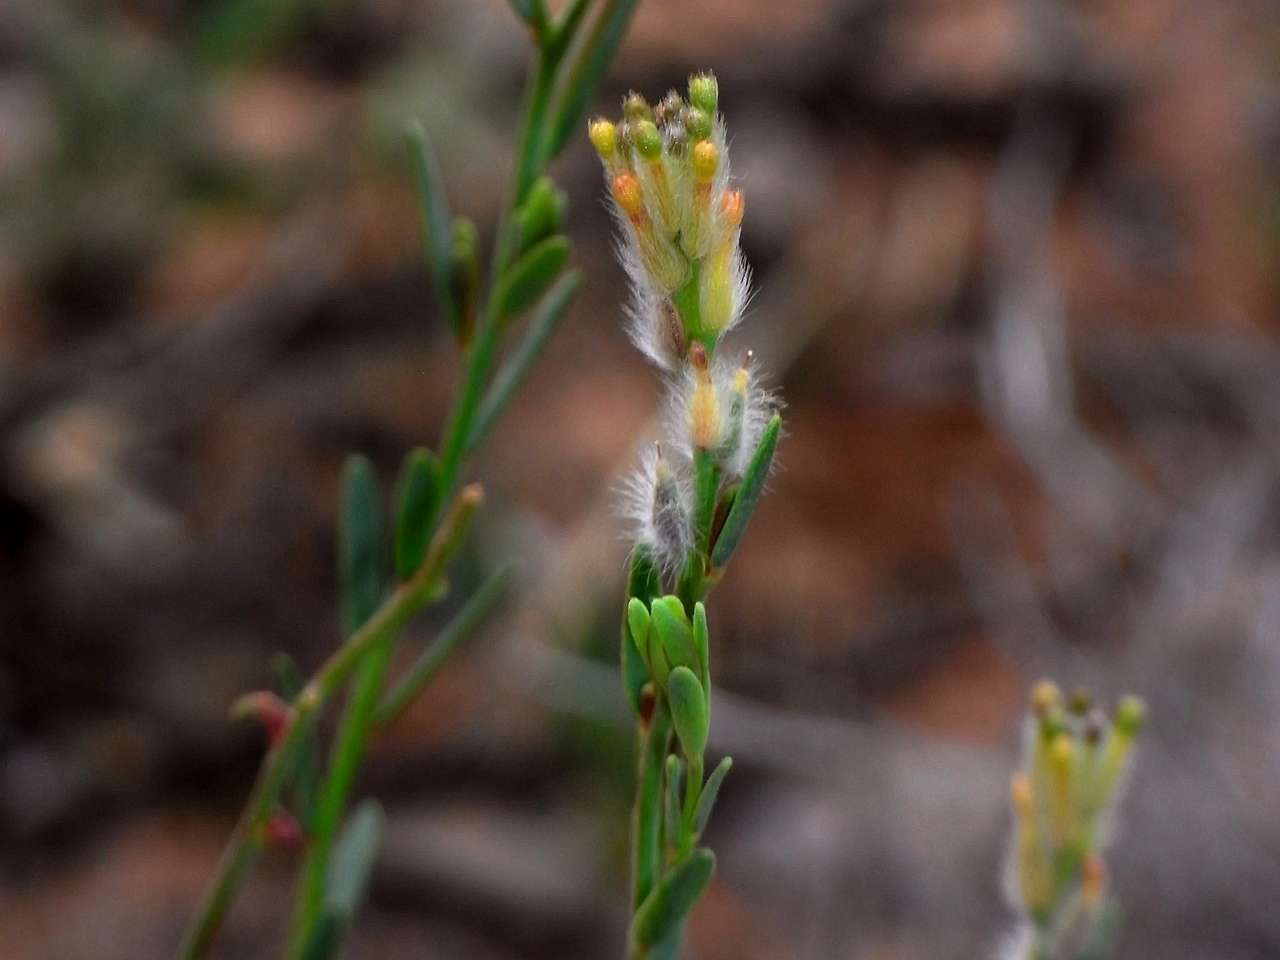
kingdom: Plantae
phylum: Tracheophyta
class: Magnoliopsida
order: Malvales
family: Thymelaeaceae
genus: Pimelea
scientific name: Pimelea trichostachya
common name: Poverty-bush
